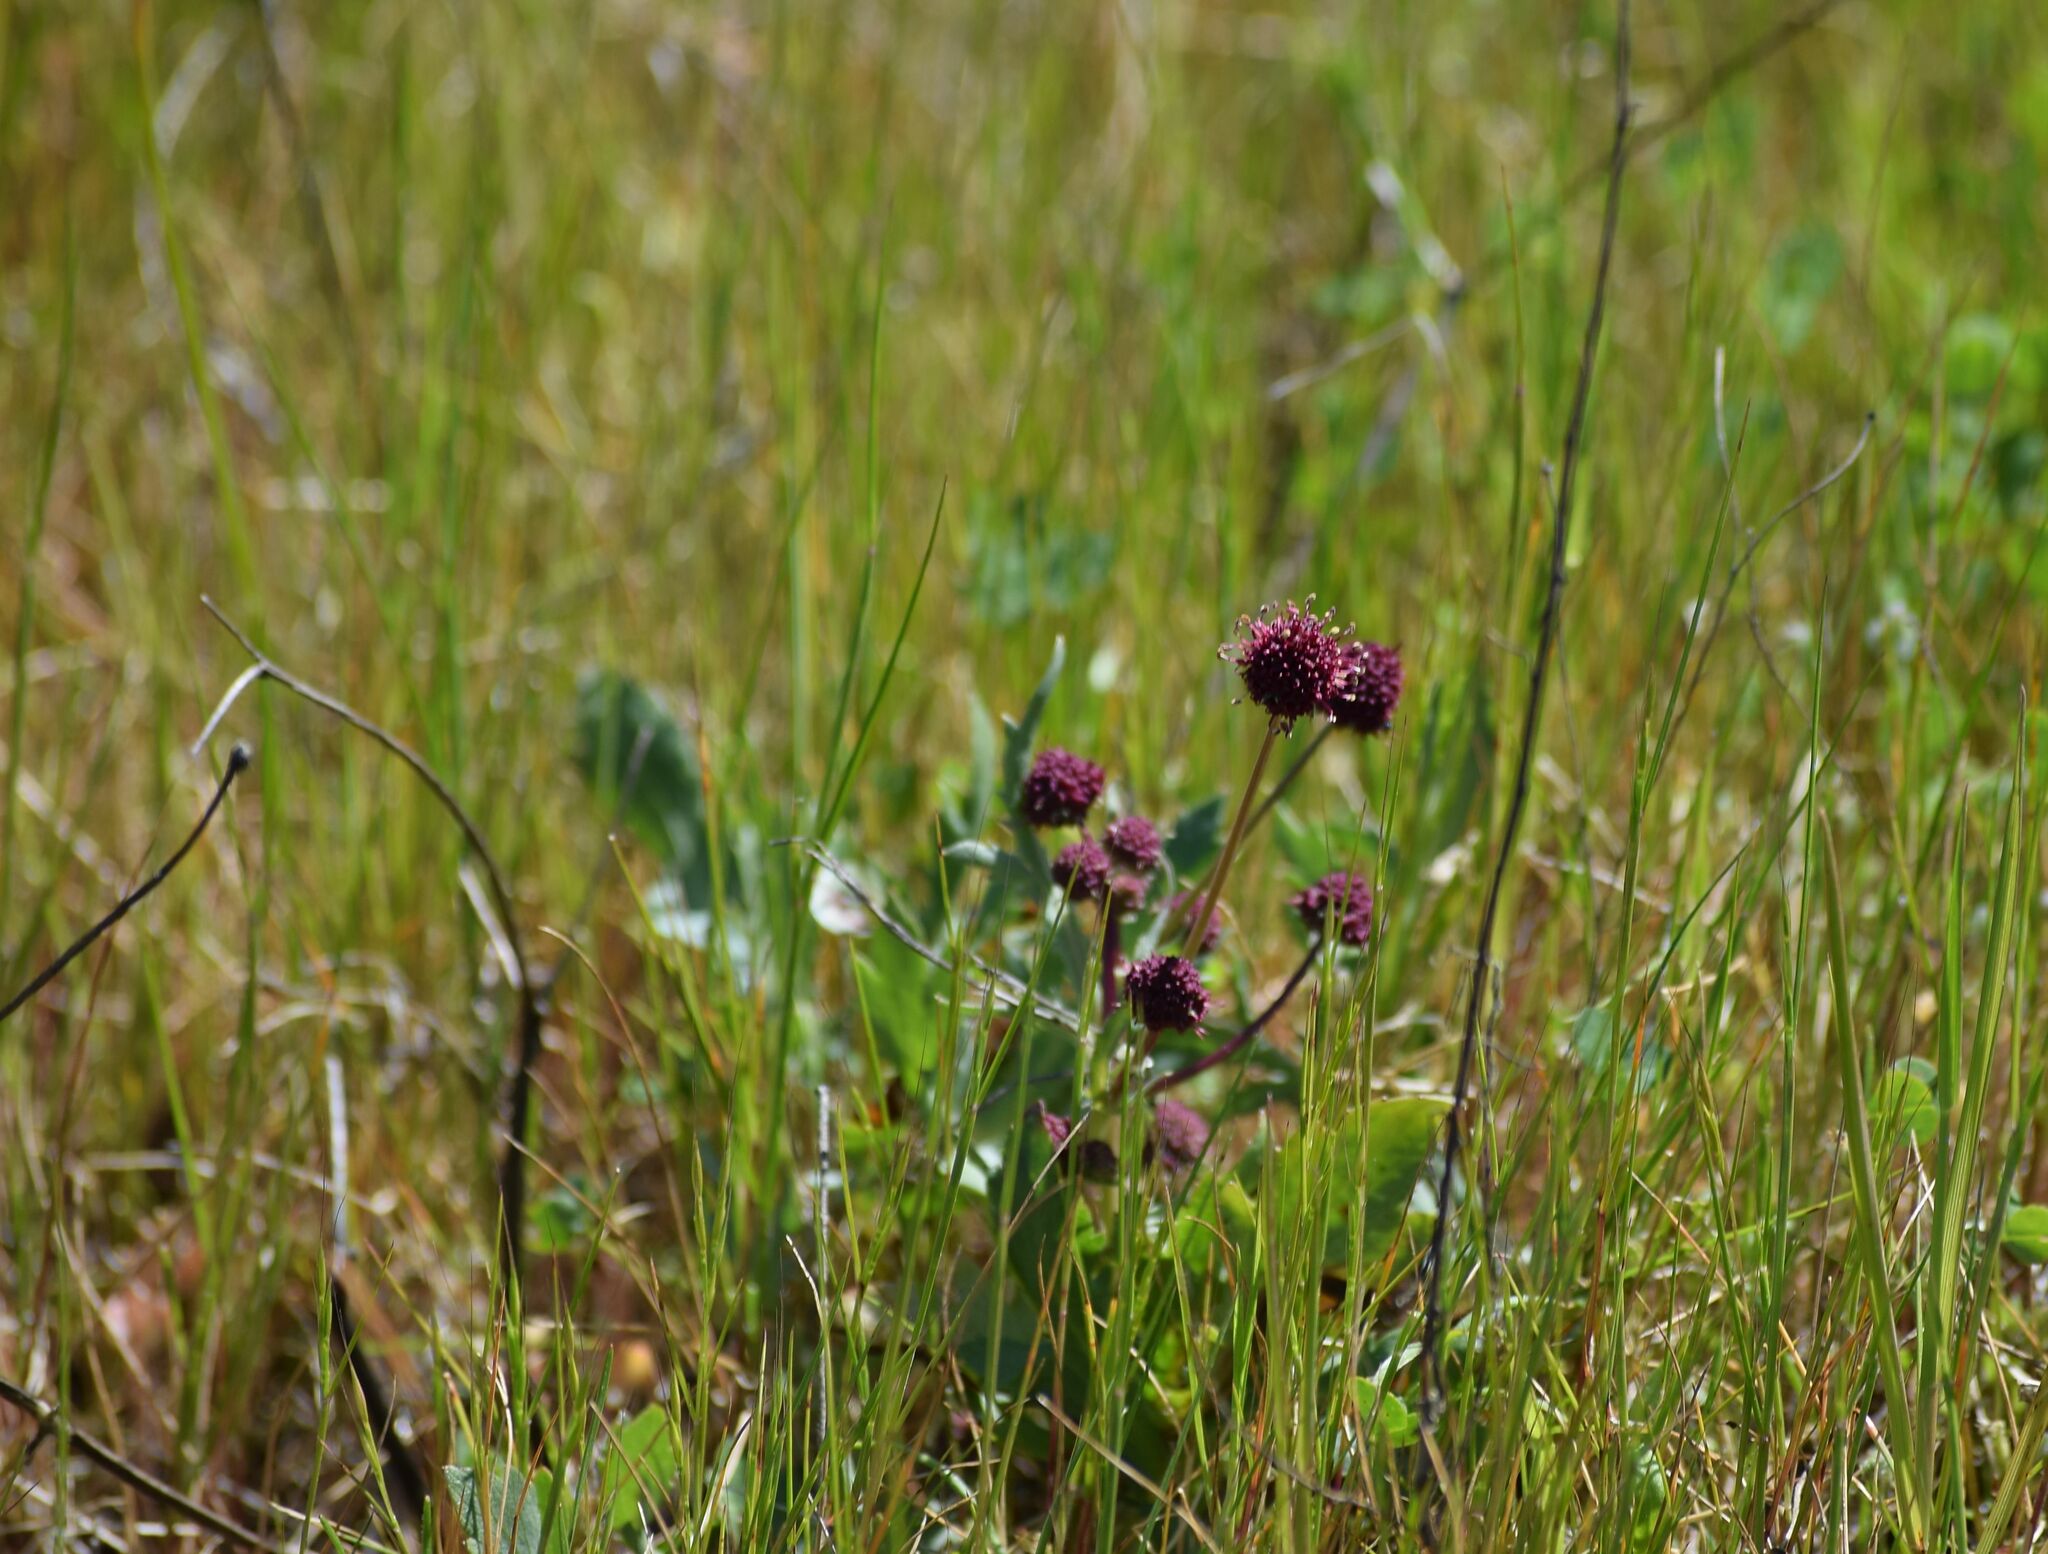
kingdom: Plantae
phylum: Tracheophyta
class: Magnoliopsida
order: Apiales
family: Apiaceae
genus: Sanicula
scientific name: Sanicula bipinnatifida
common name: Shoe-buttons
